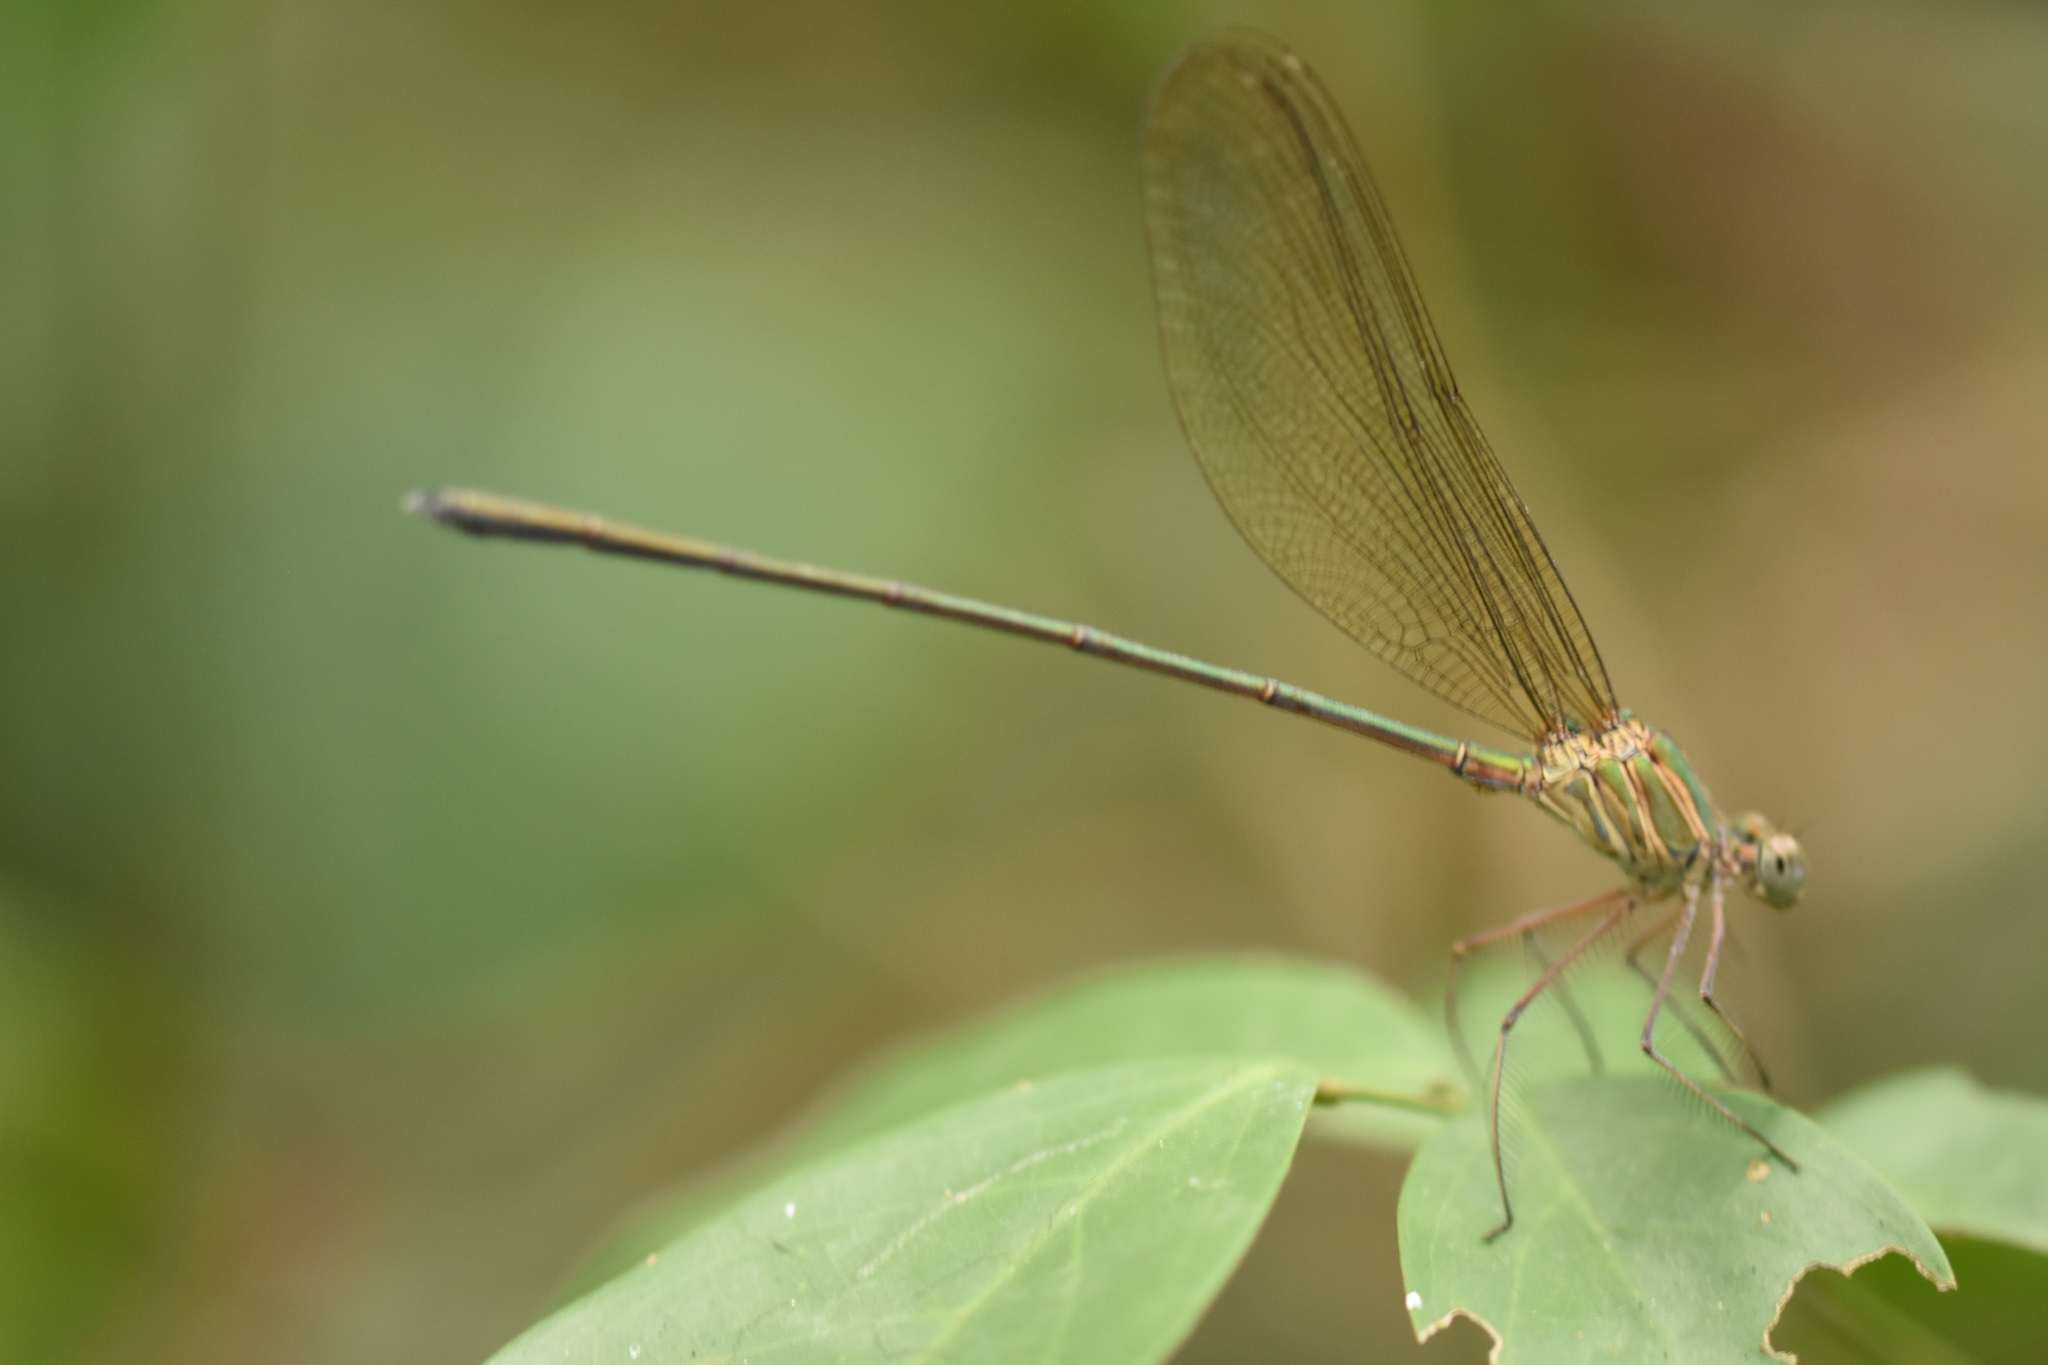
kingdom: Animalia
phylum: Arthropoda
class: Insecta
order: Odonata
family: Calopterygidae
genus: Phaon
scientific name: Phaon iridipennis
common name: Glistening demoiselle
